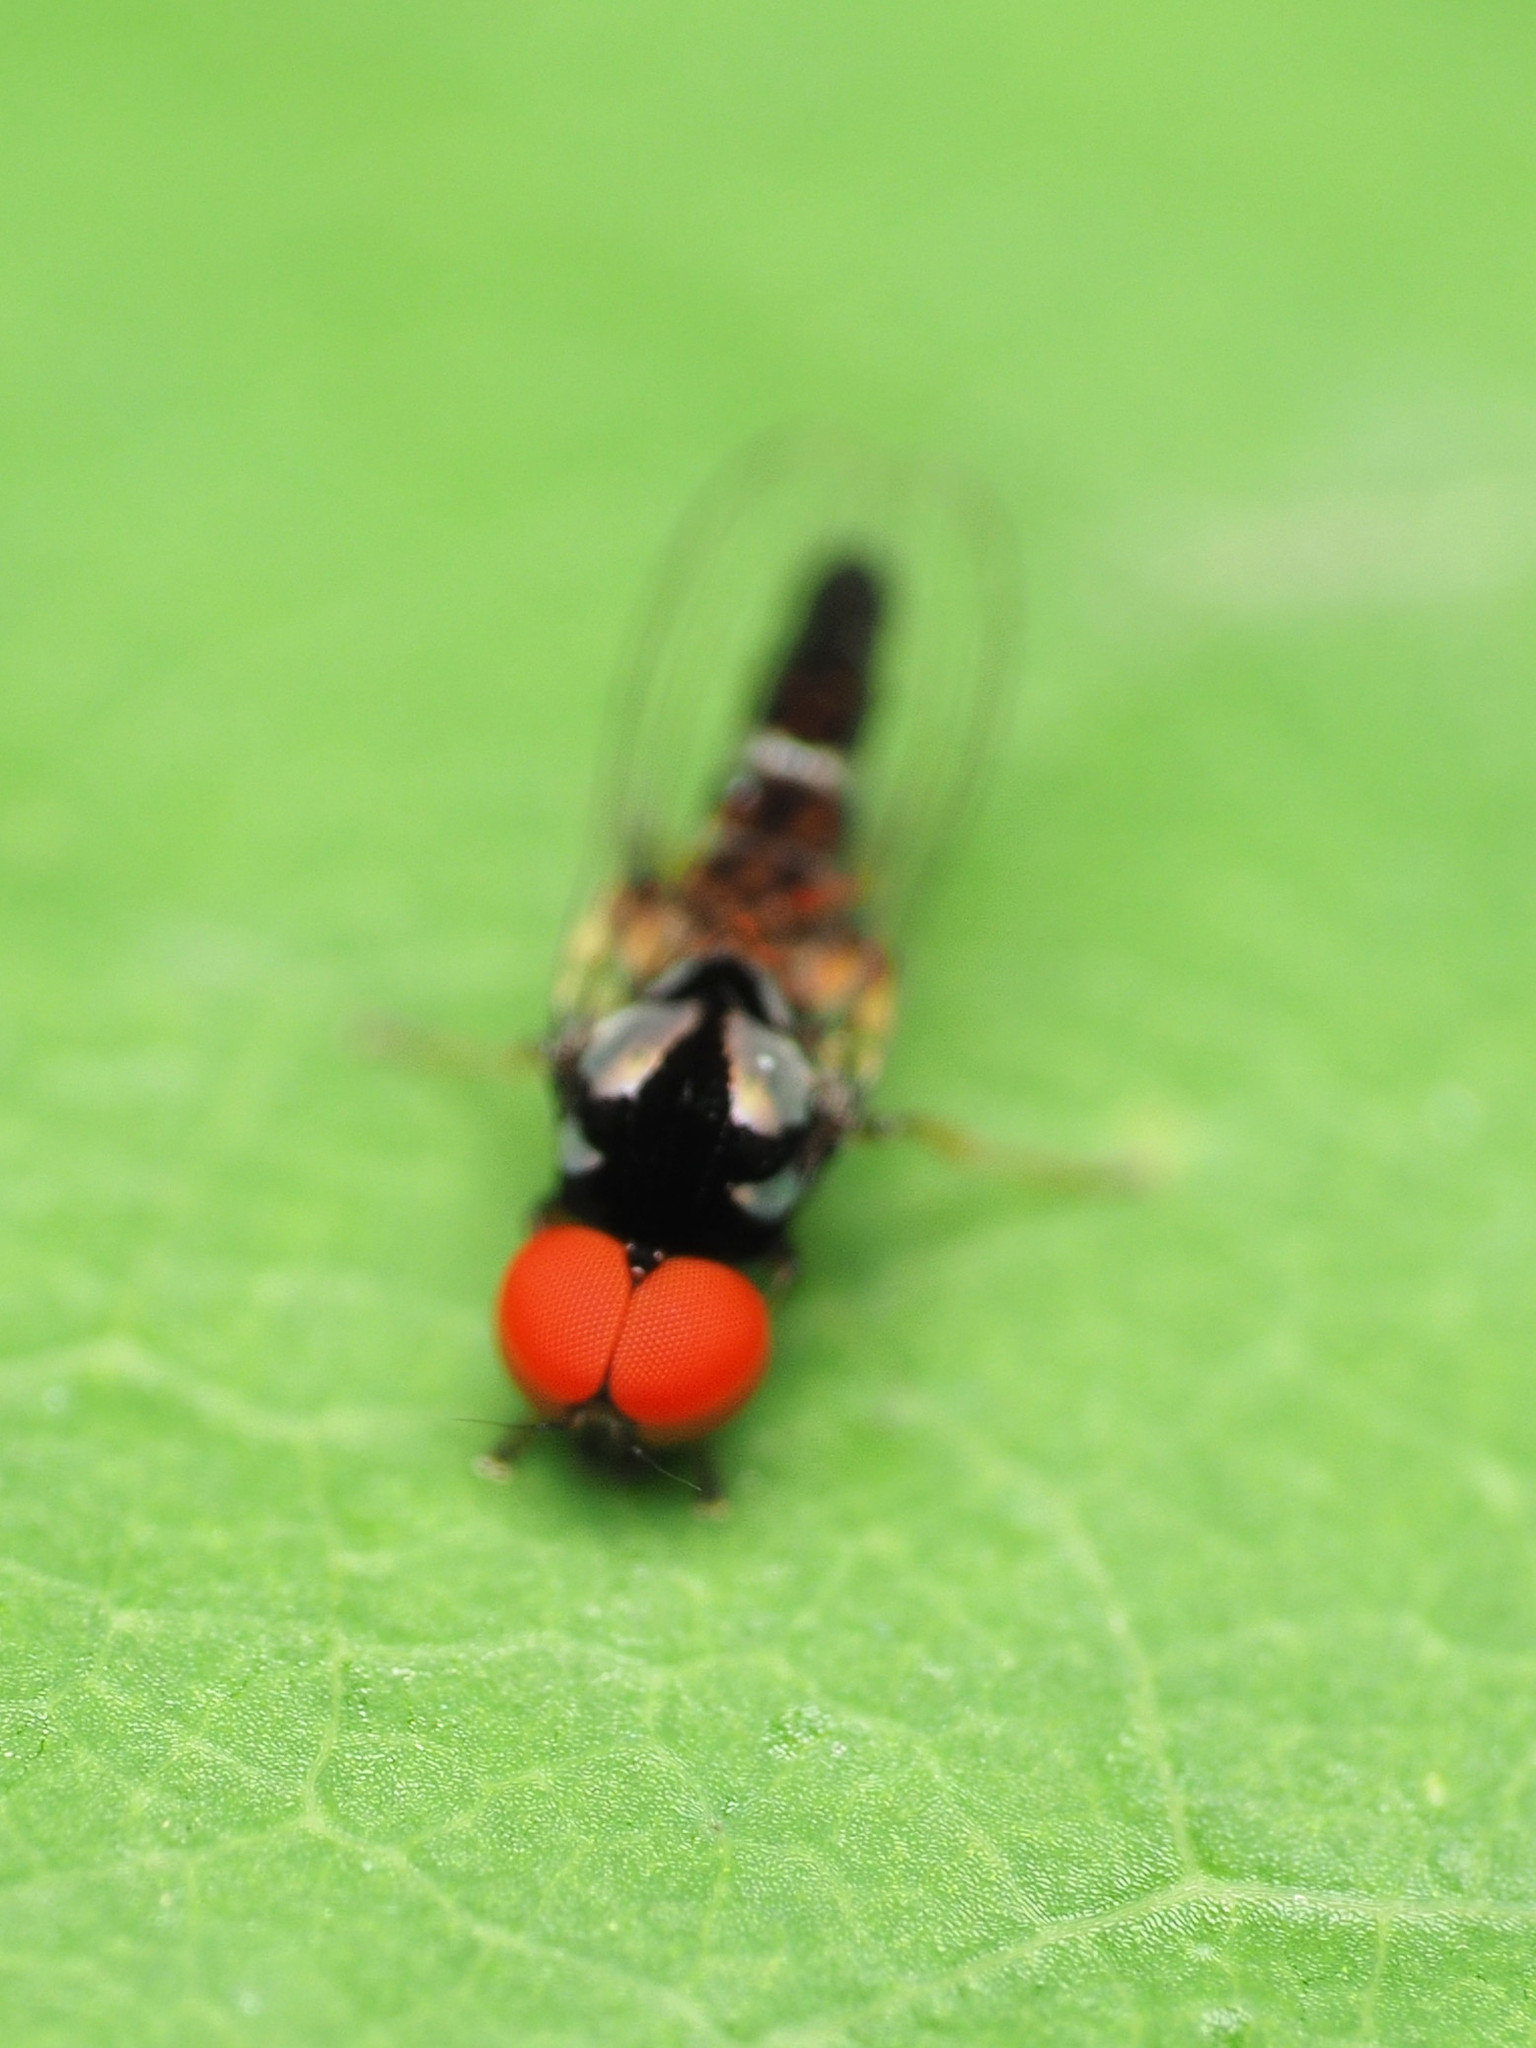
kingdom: Animalia
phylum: Arthropoda
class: Insecta
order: Diptera
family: Platypezidae
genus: Bertamyia
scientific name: Bertamyia notata
